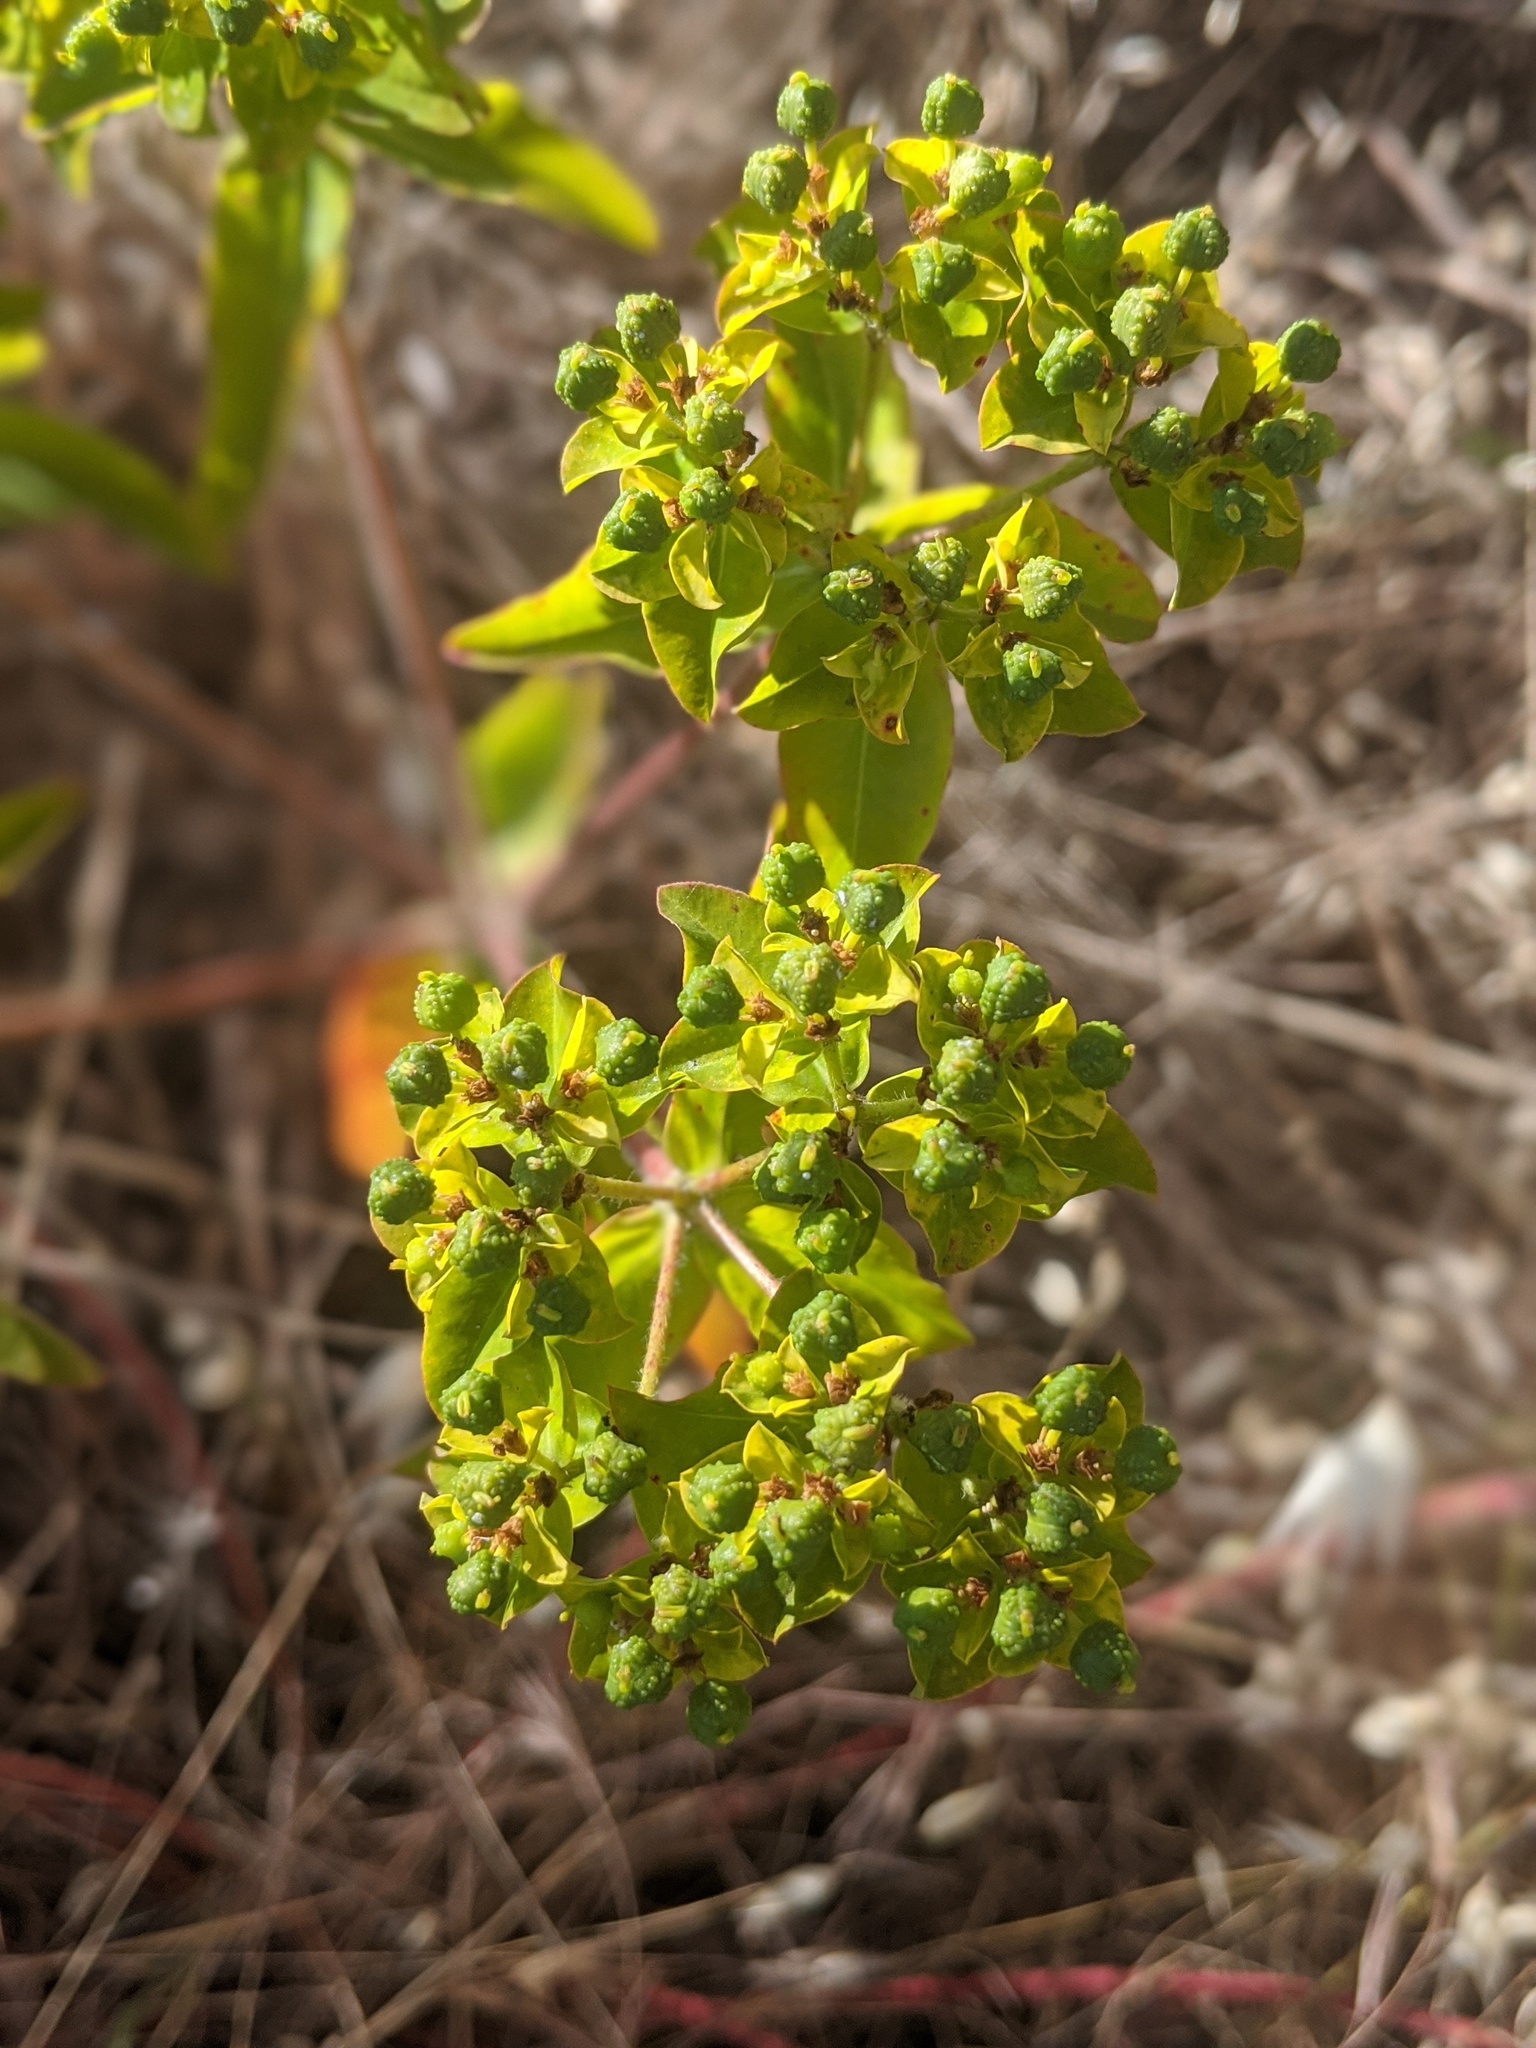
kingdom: Plantae
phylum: Tracheophyta
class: Magnoliopsida
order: Malpighiales
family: Euphorbiaceae
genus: Euphorbia
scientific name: Euphorbia oblongata
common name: Balkan spurge
